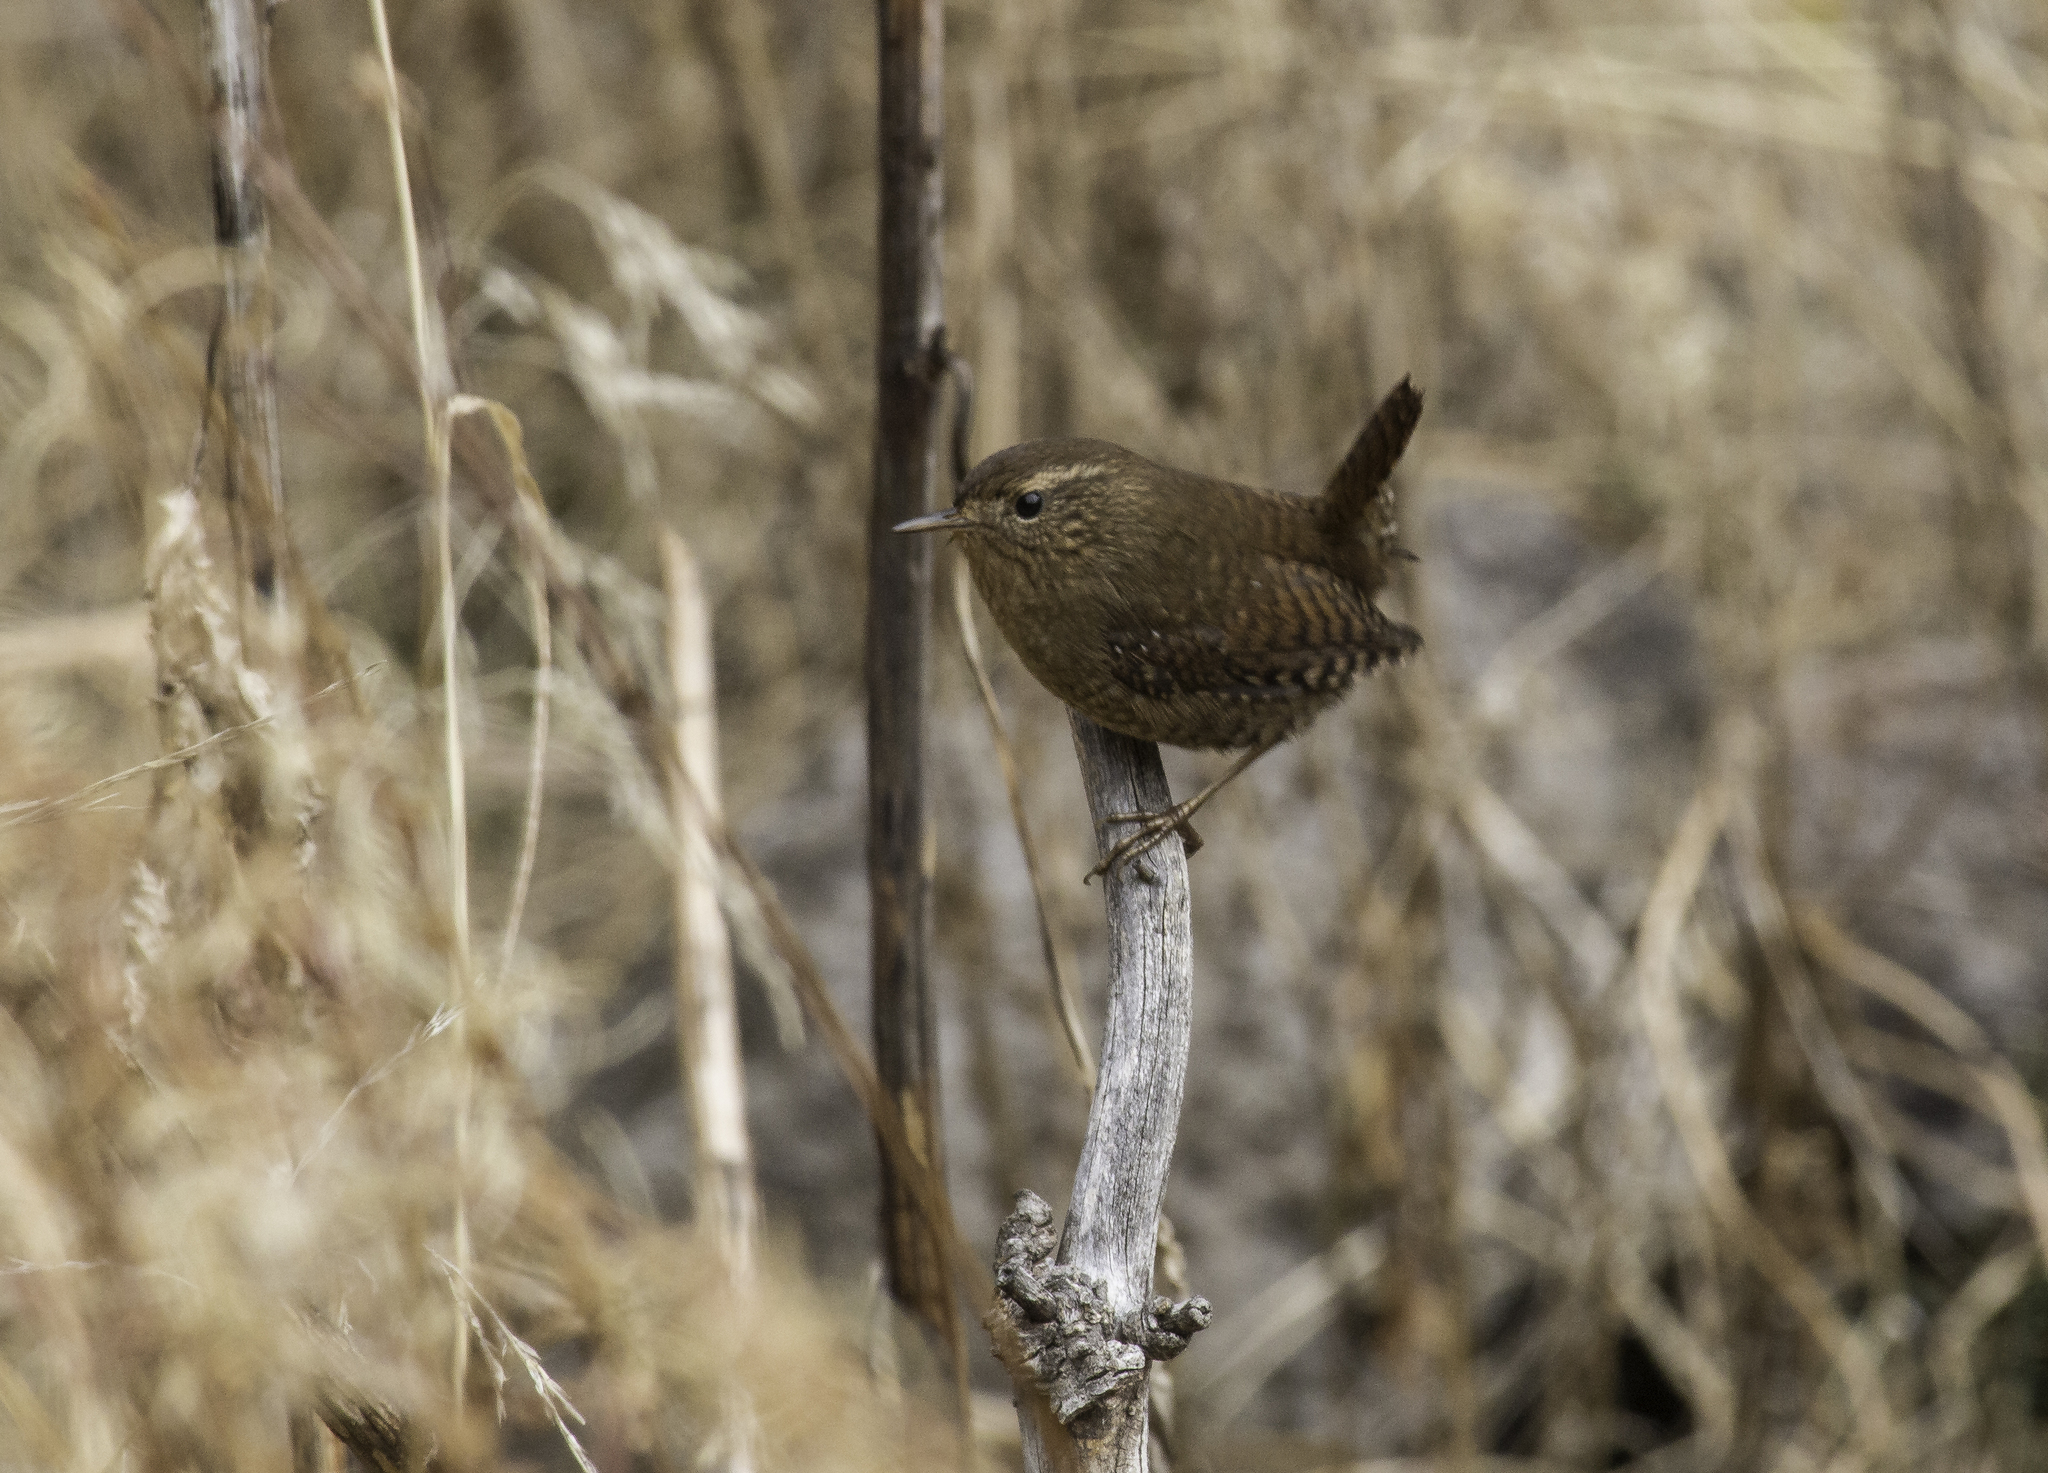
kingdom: Animalia
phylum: Chordata
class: Aves
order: Passeriformes
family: Troglodytidae
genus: Troglodytes
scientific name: Troglodytes pacificus
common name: Pacific wren
